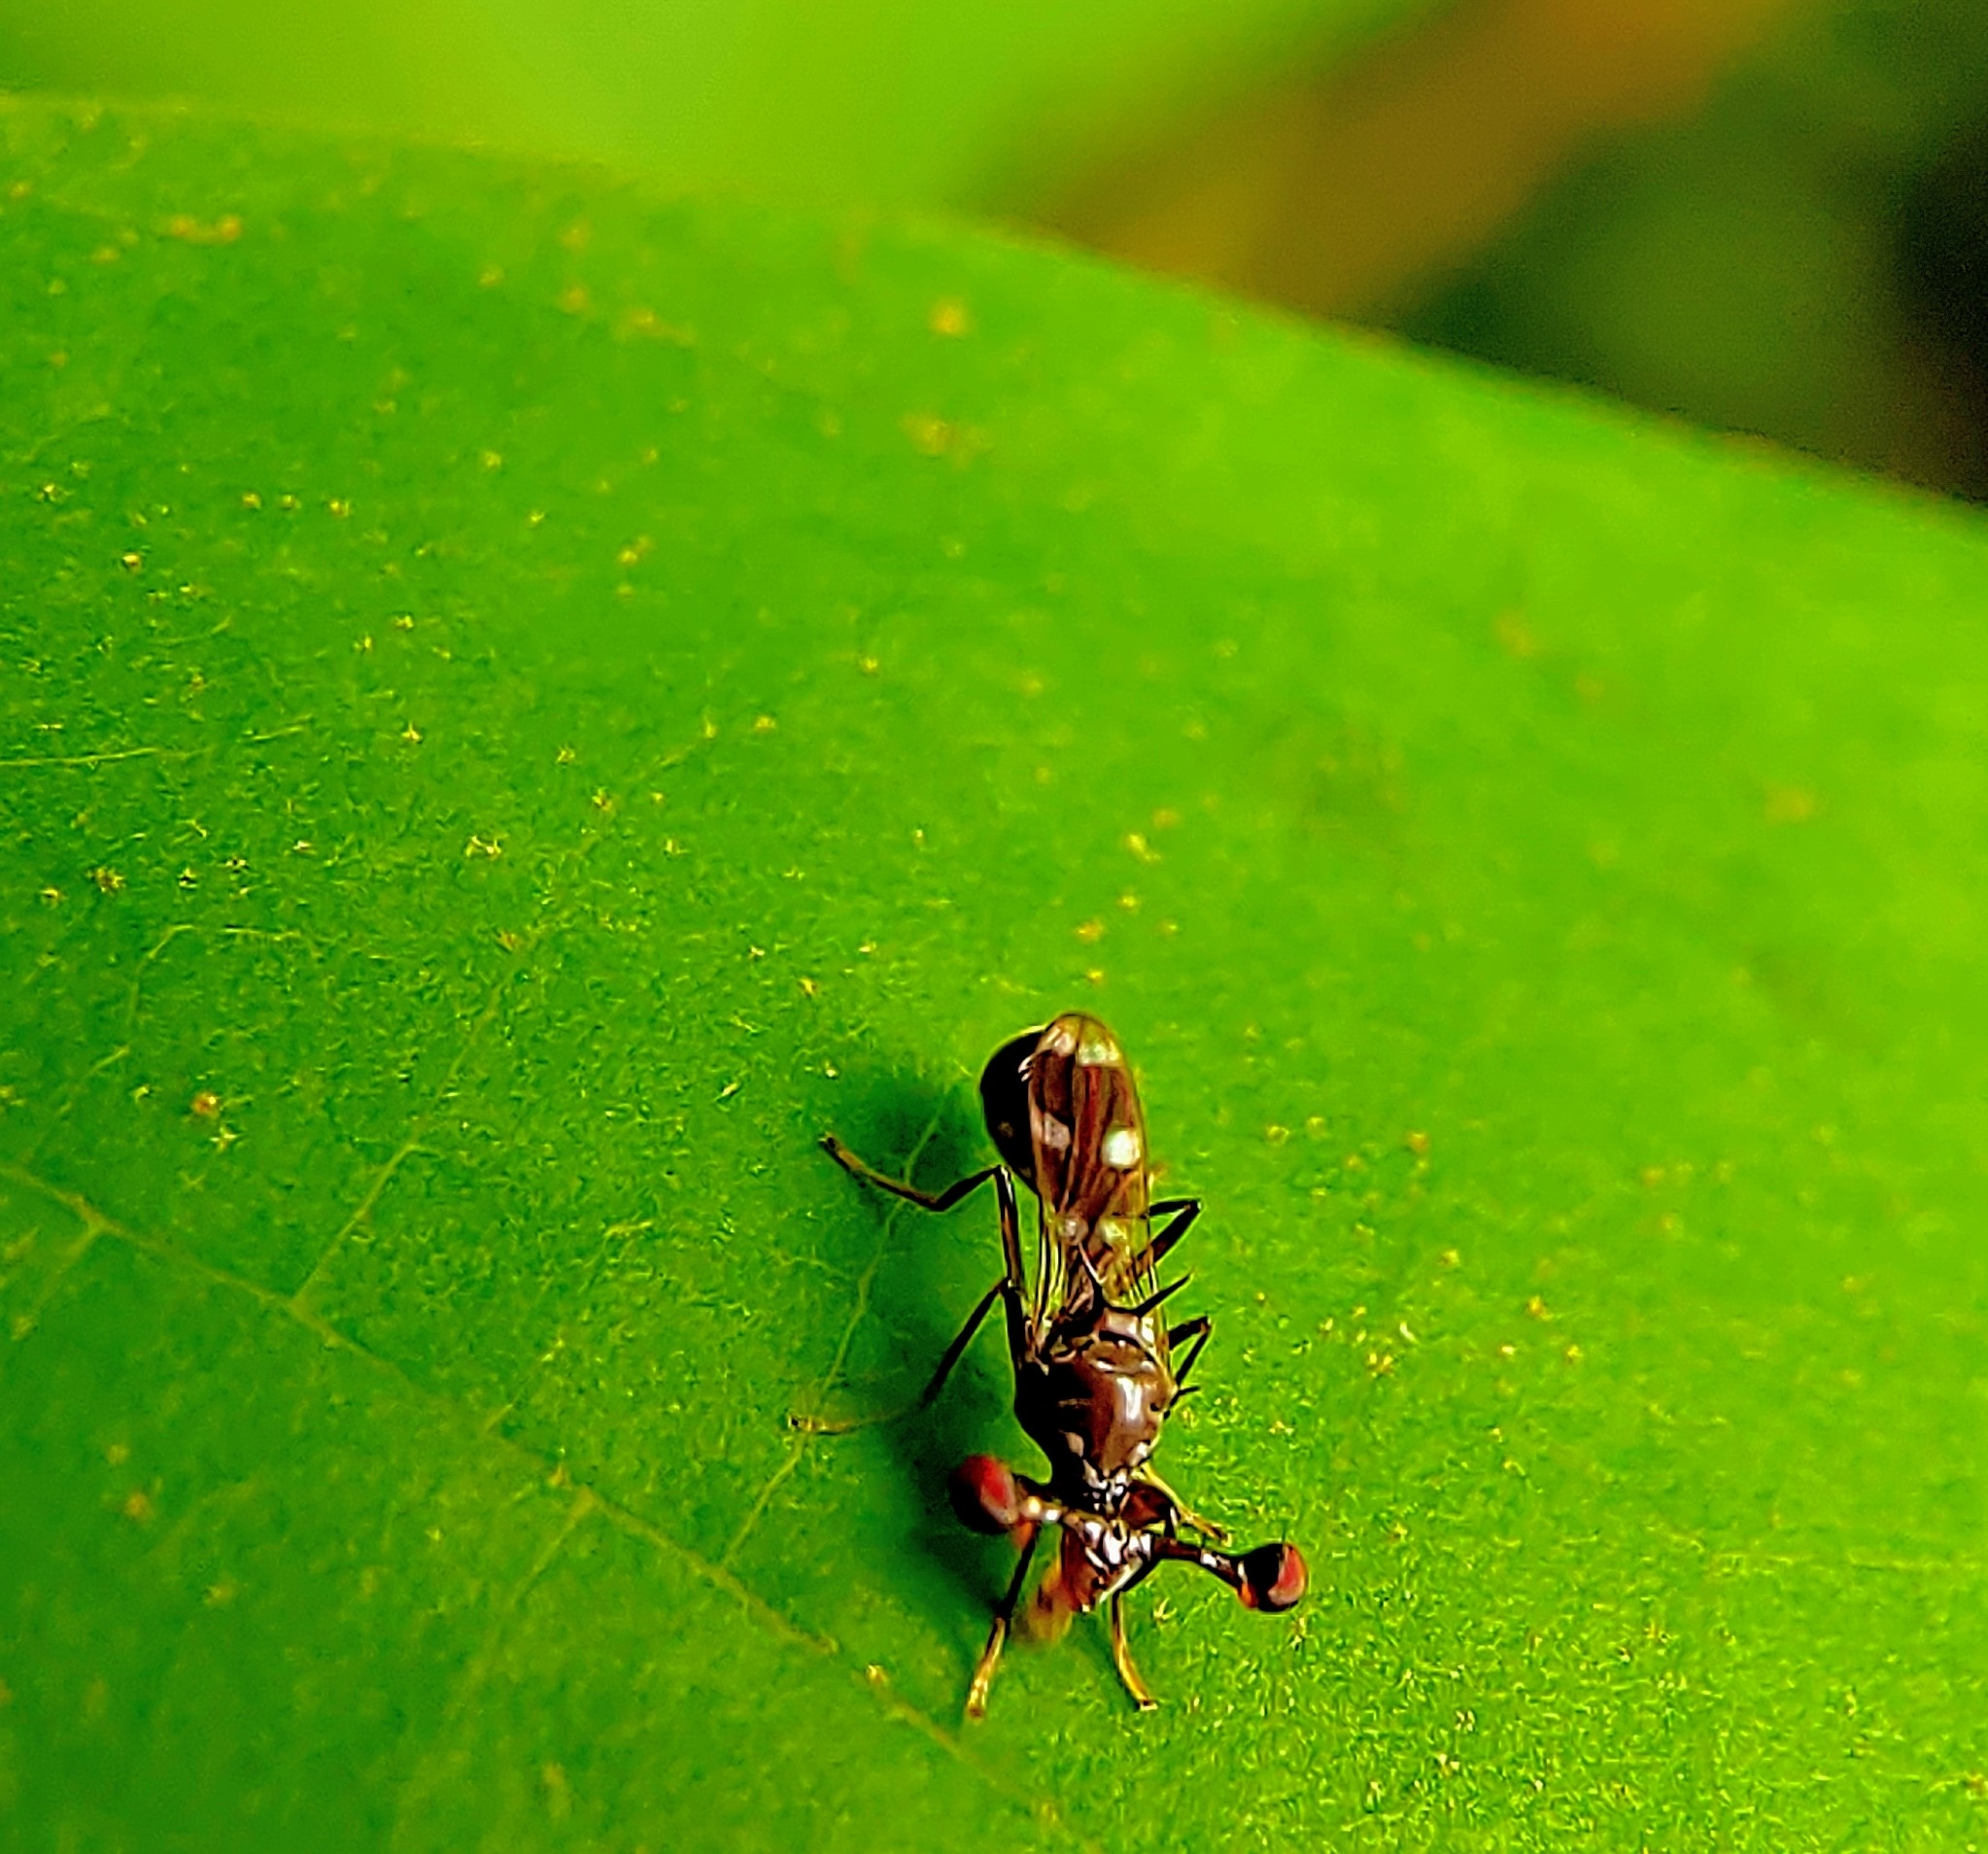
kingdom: Animalia
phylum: Arthropoda
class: Insecta
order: Diptera
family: Diopsidae
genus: Megalabops
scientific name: Megalabops
